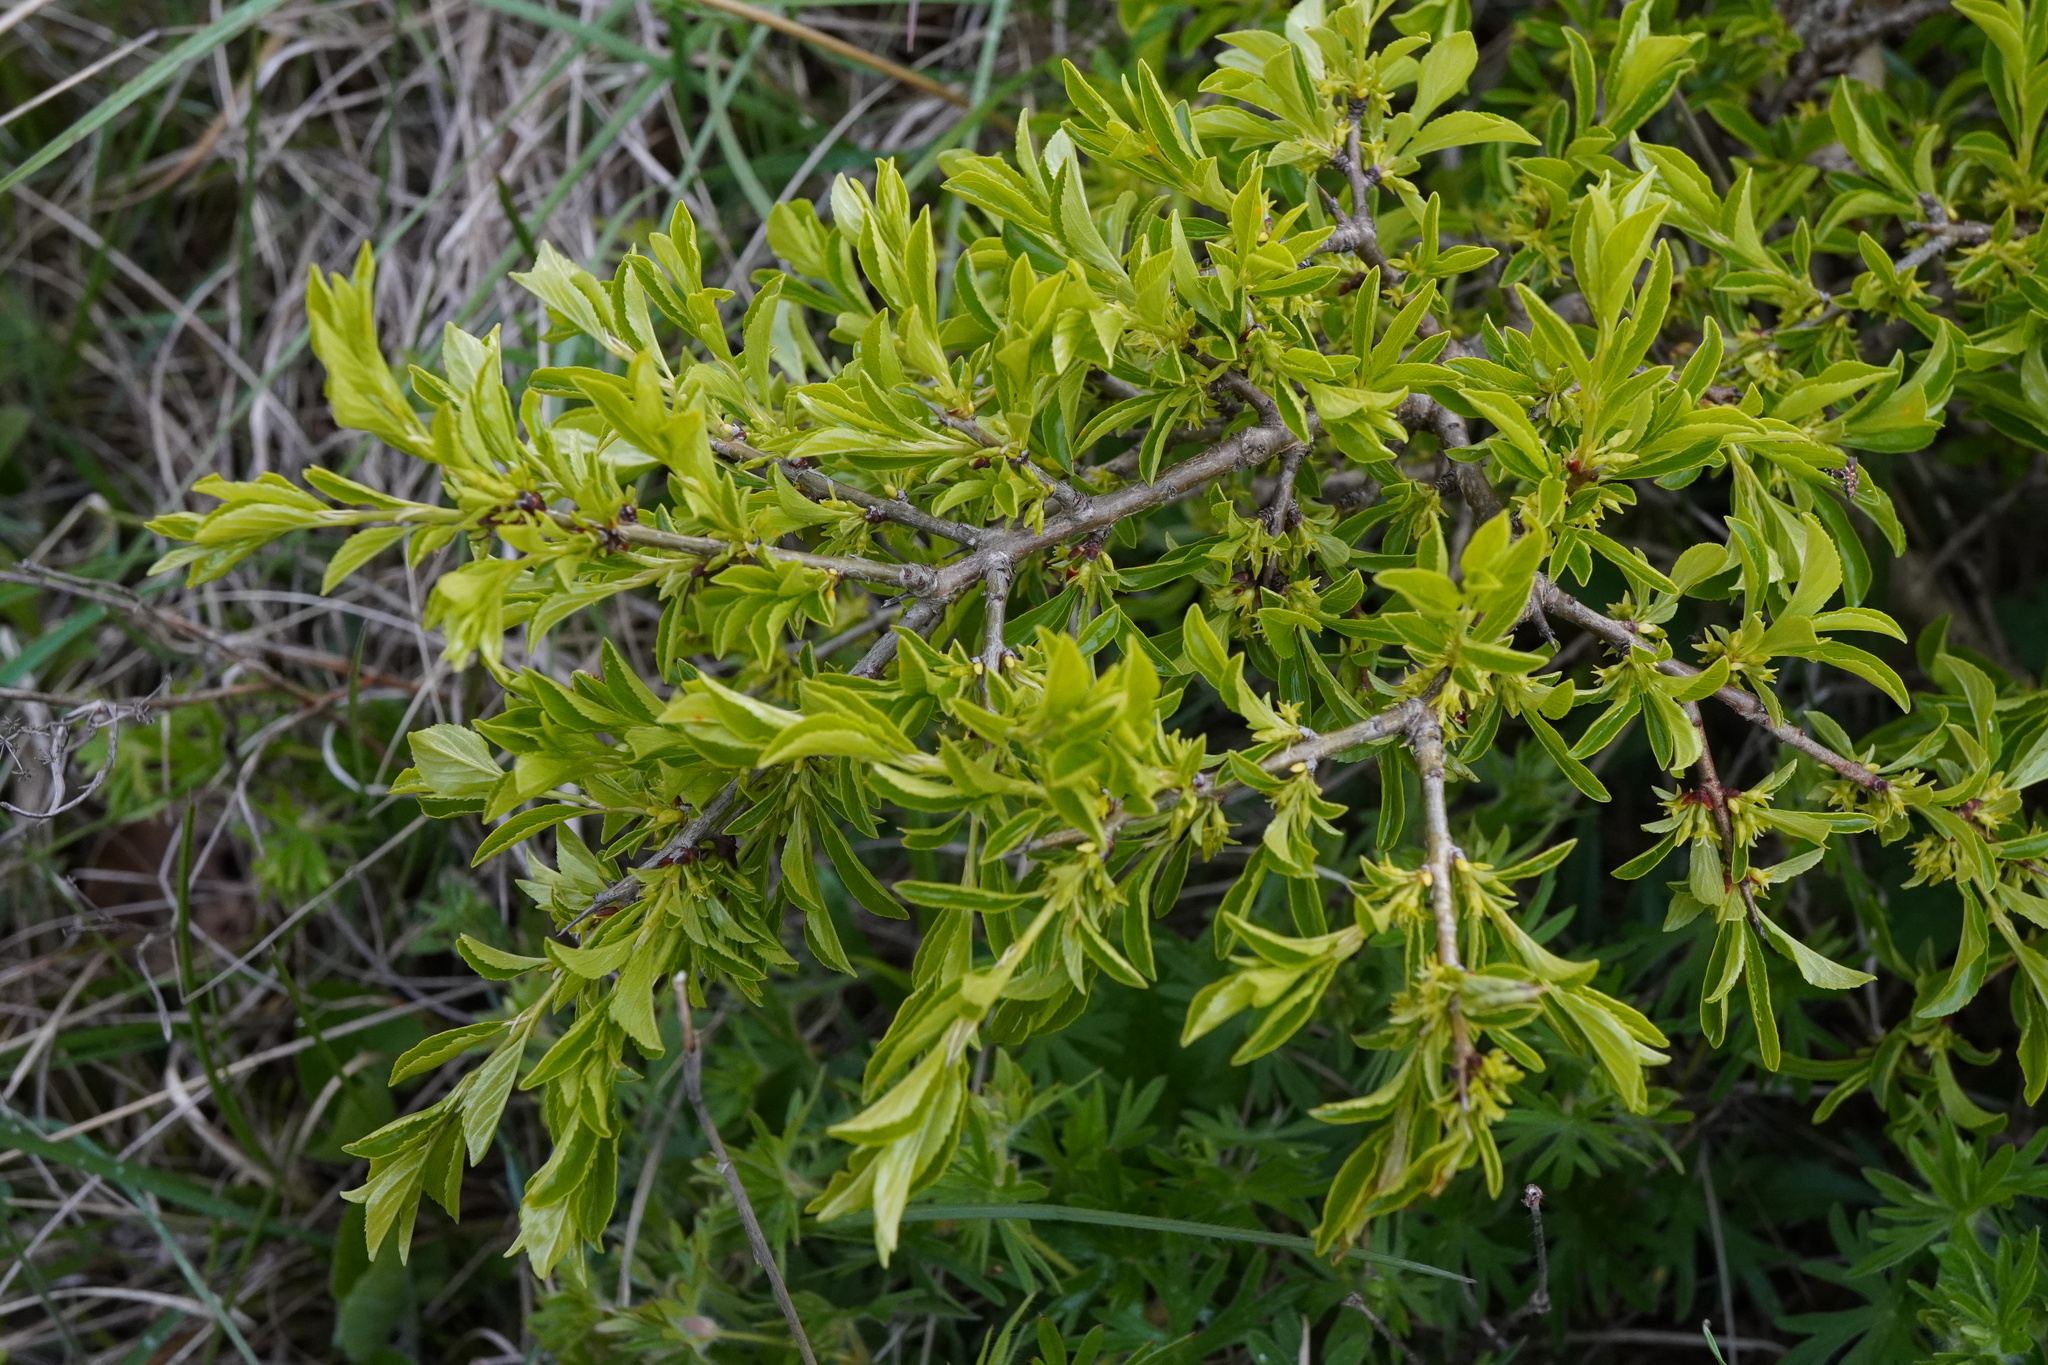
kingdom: Plantae
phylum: Tracheophyta
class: Magnoliopsida
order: Rosales
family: Rhamnaceae
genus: Rhamnus
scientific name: Rhamnus saxatilis
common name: Rock buckthorn
